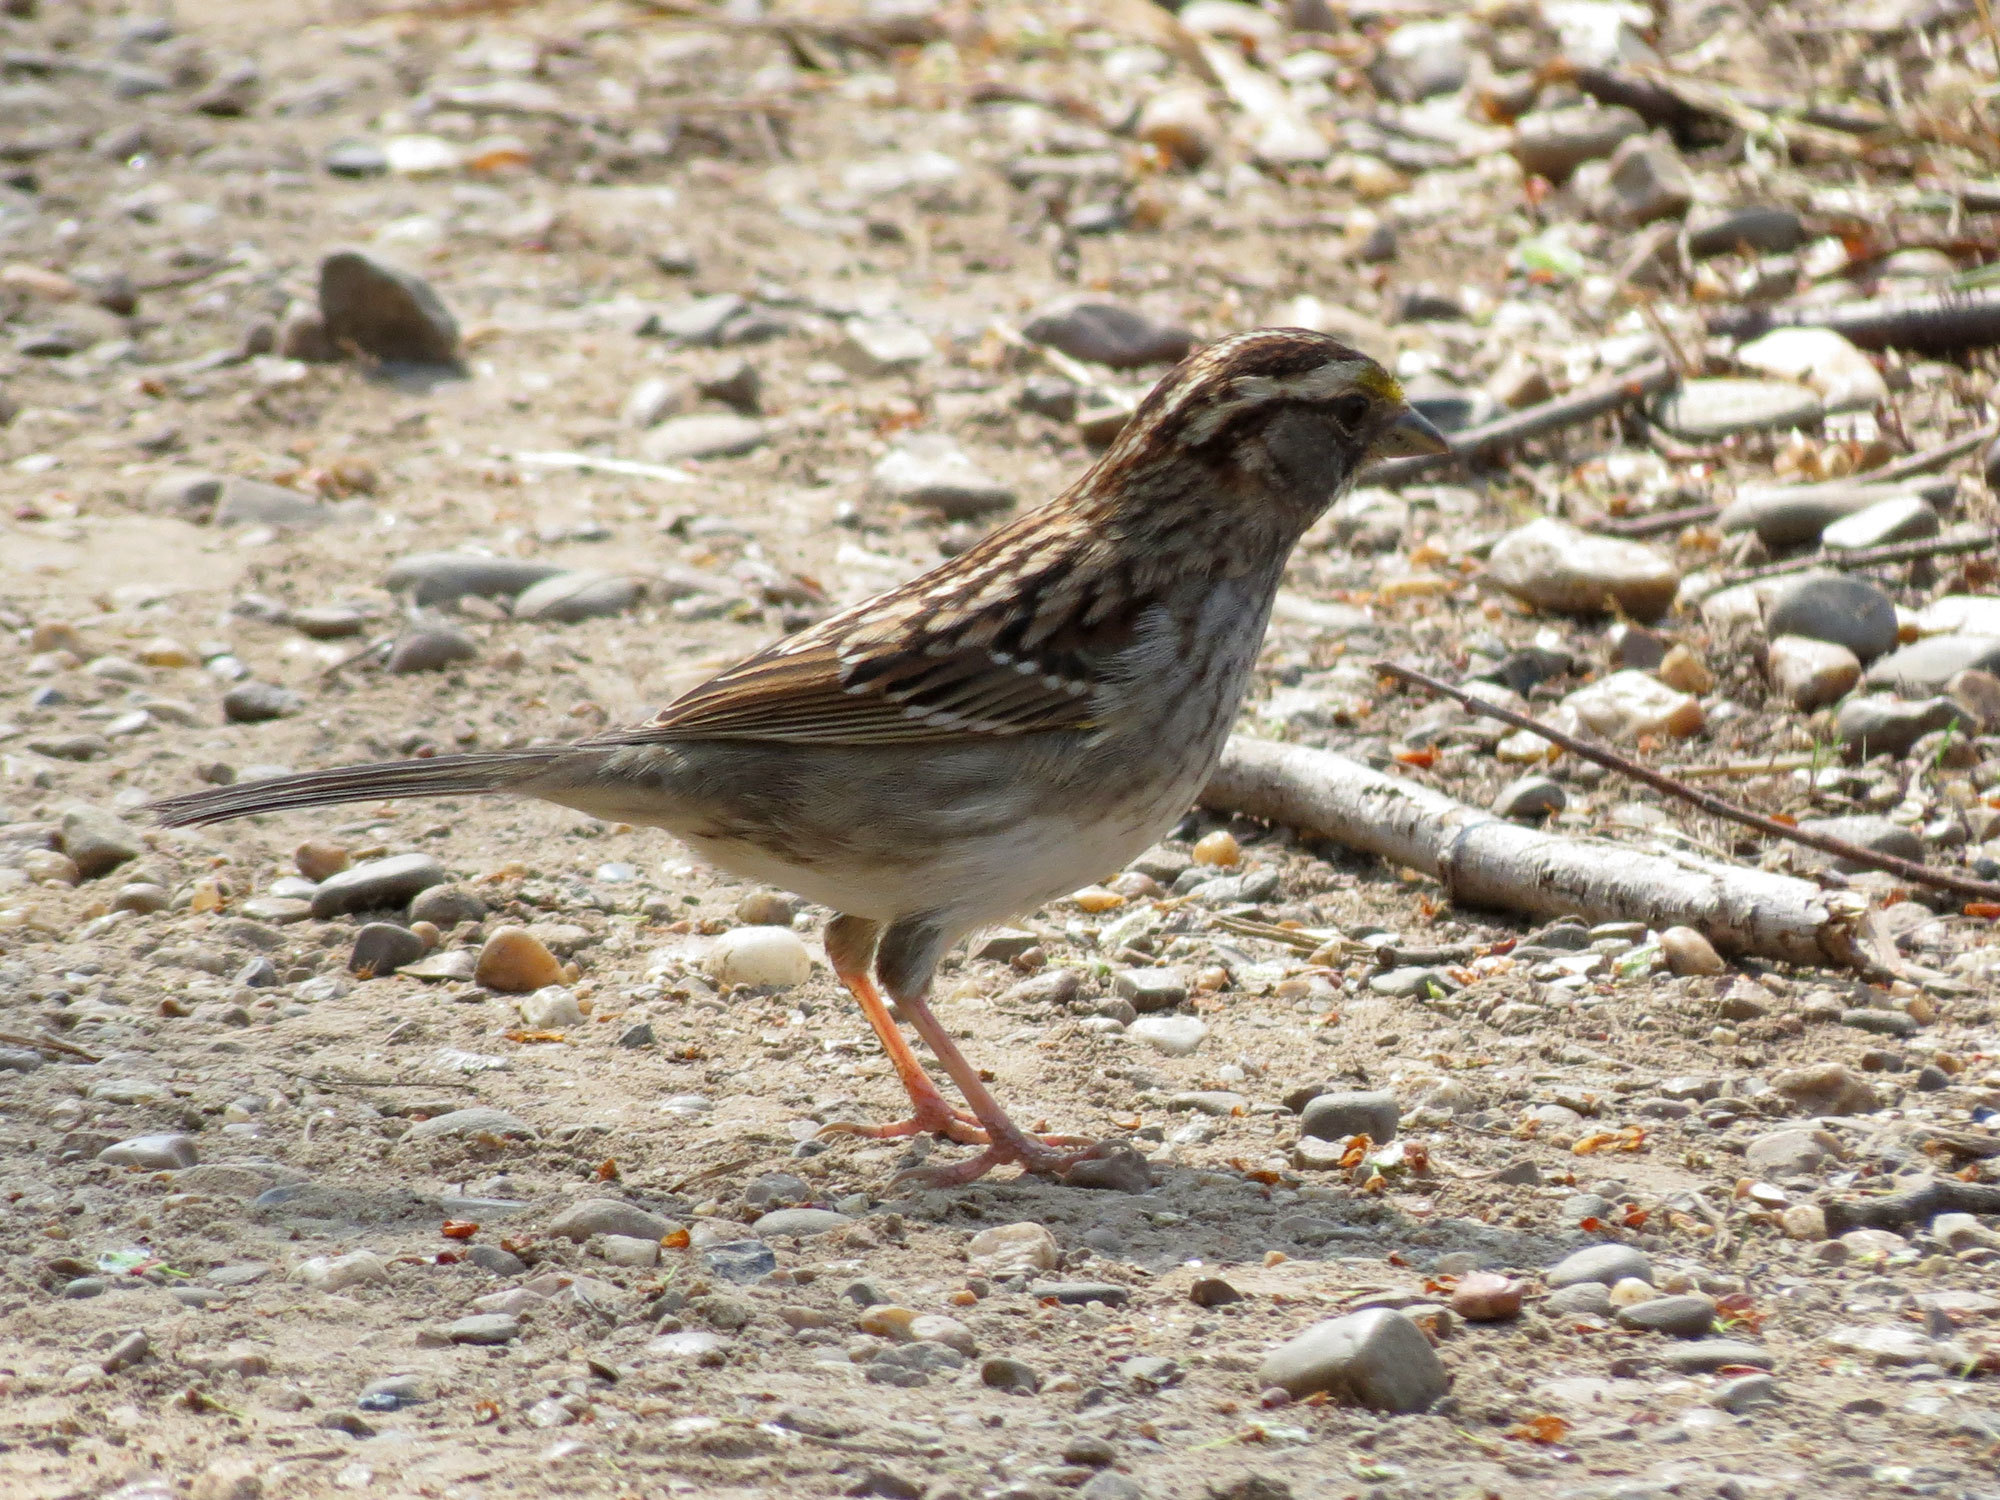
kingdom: Animalia
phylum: Chordata
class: Aves
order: Passeriformes
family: Passerellidae
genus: Zonotrichia
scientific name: Zonotrichia albicollis
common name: White-throated sparrow
